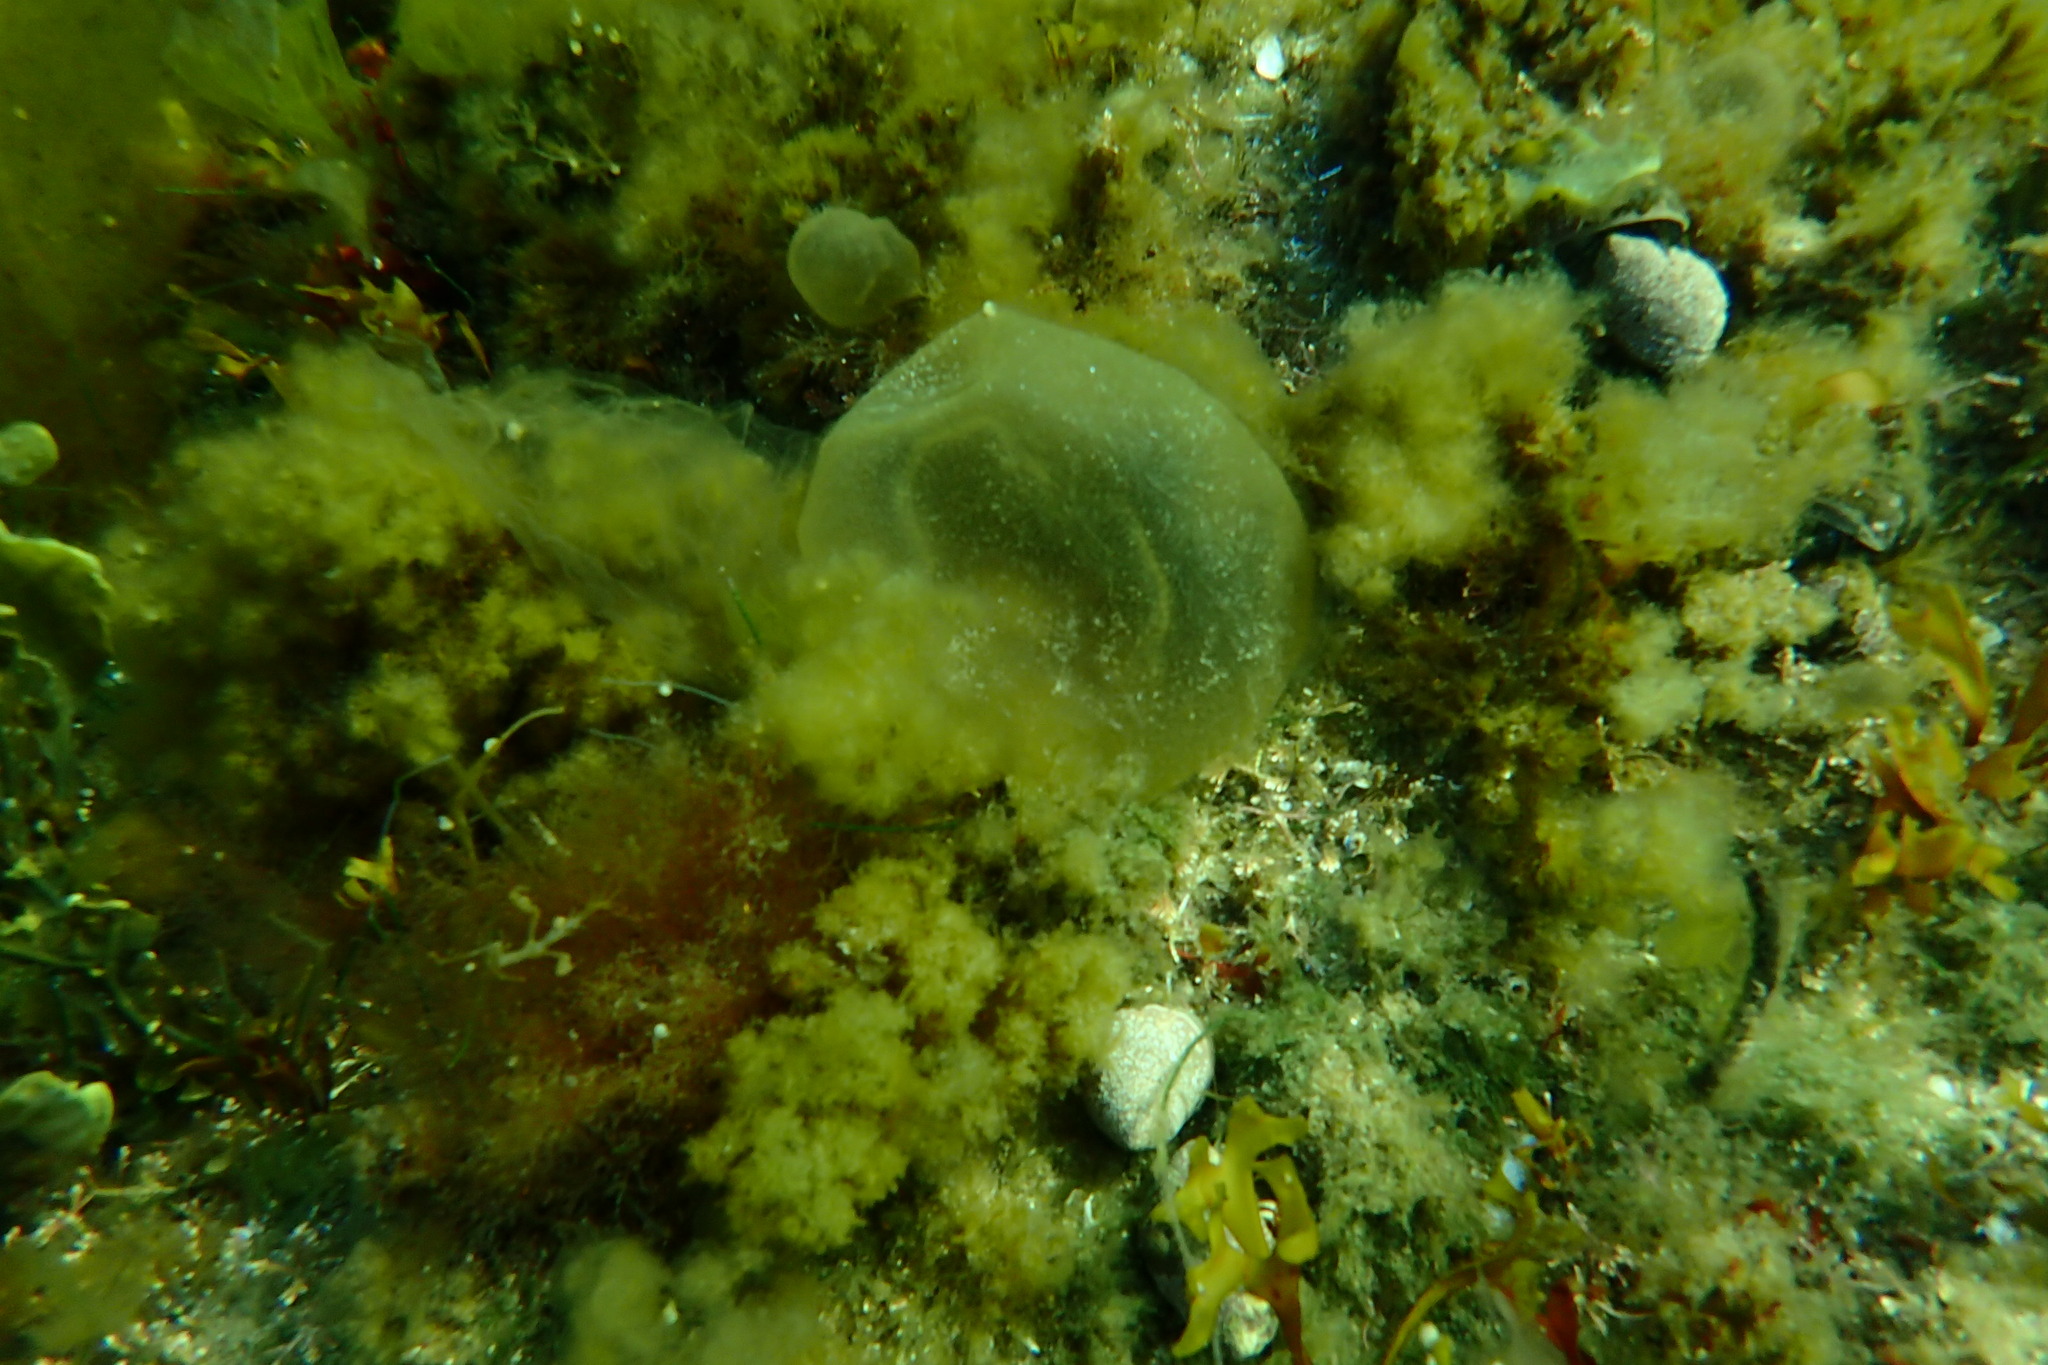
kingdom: Chromista
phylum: Ochrophyta
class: Phaeophyceae
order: Scytosiphonales
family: Scytosiphonaceae
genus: Colpomenia
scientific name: Colpomenia peregrina
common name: Oyster thief
